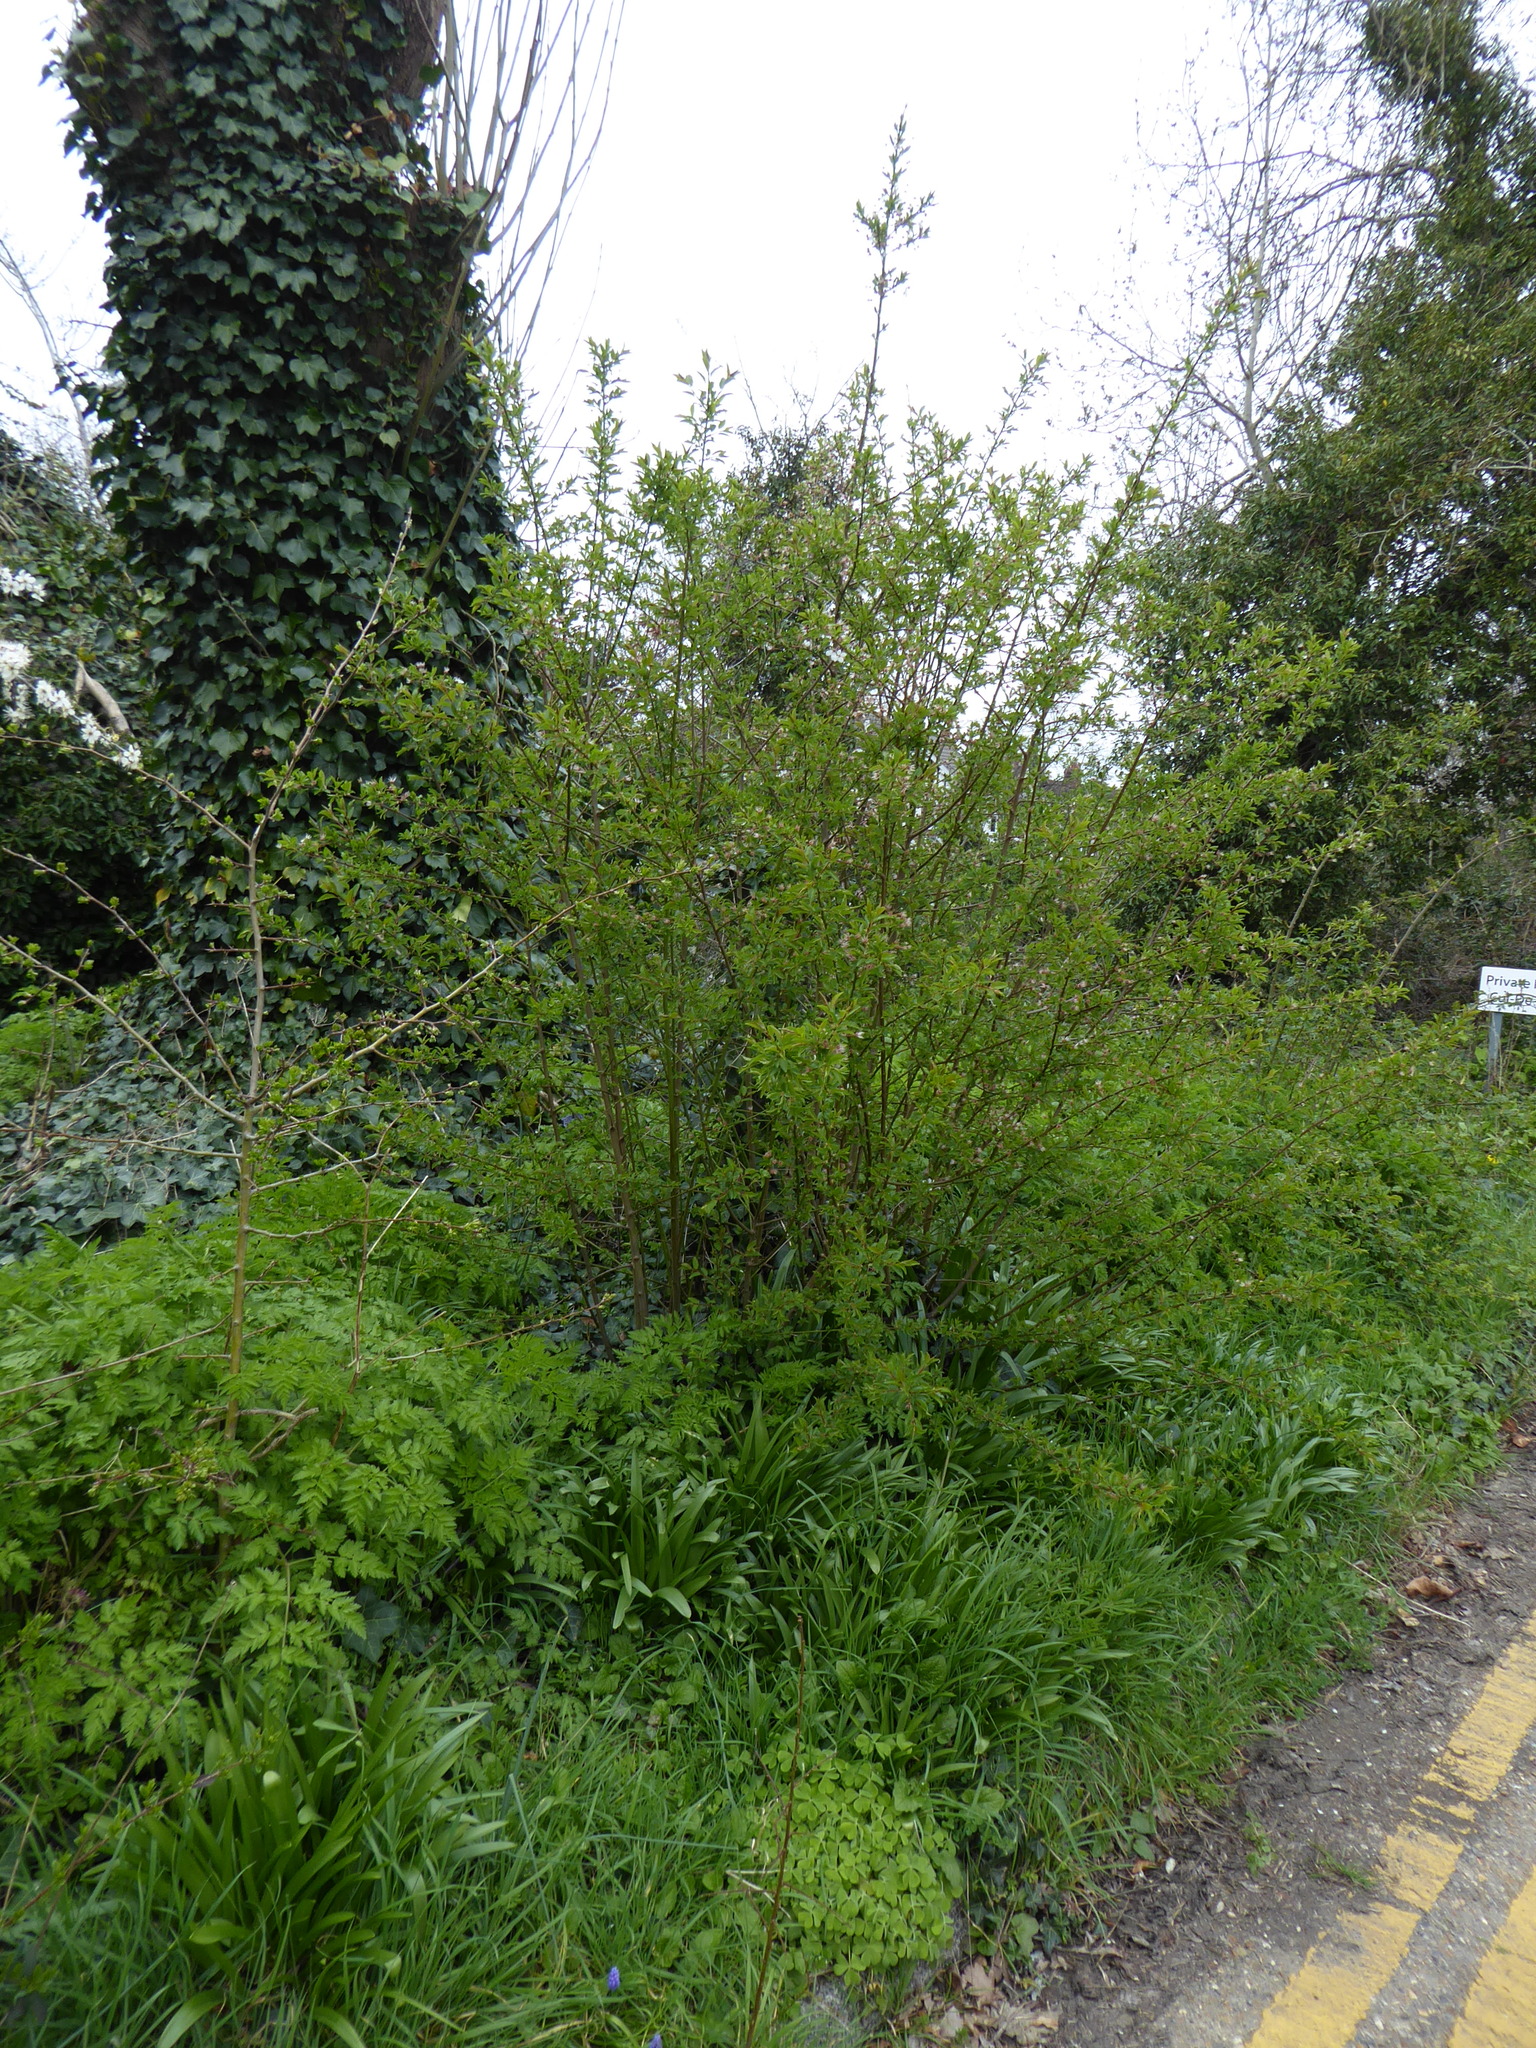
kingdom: Plantae
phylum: Tracheophyta
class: Magnoliopsida
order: Rosales
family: Rosaceae
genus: Prunus
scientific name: Prunus cerasifera
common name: Cherry plum
